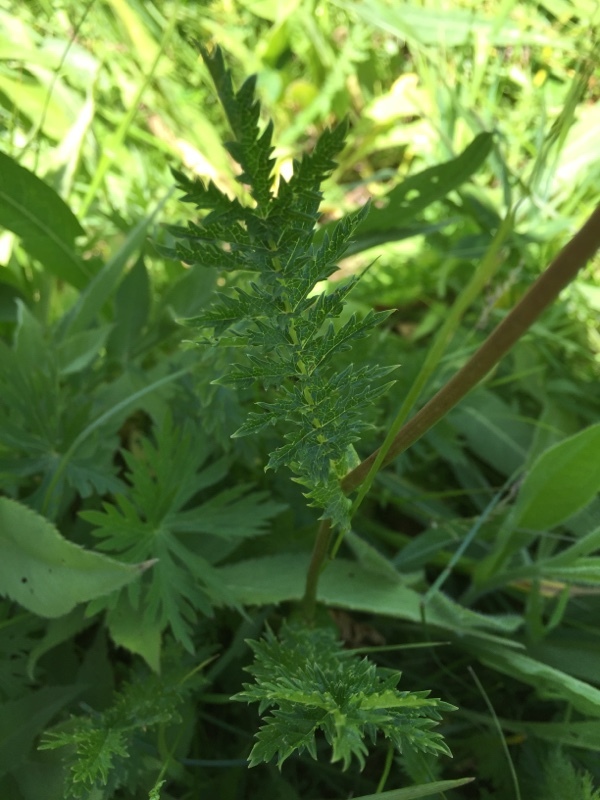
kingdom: Plantae
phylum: Tracheophyta
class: Magnoliopsida
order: Rosales
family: Rosaceae
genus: Filipendula
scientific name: Filipendula vulgaris
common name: Dropwort
